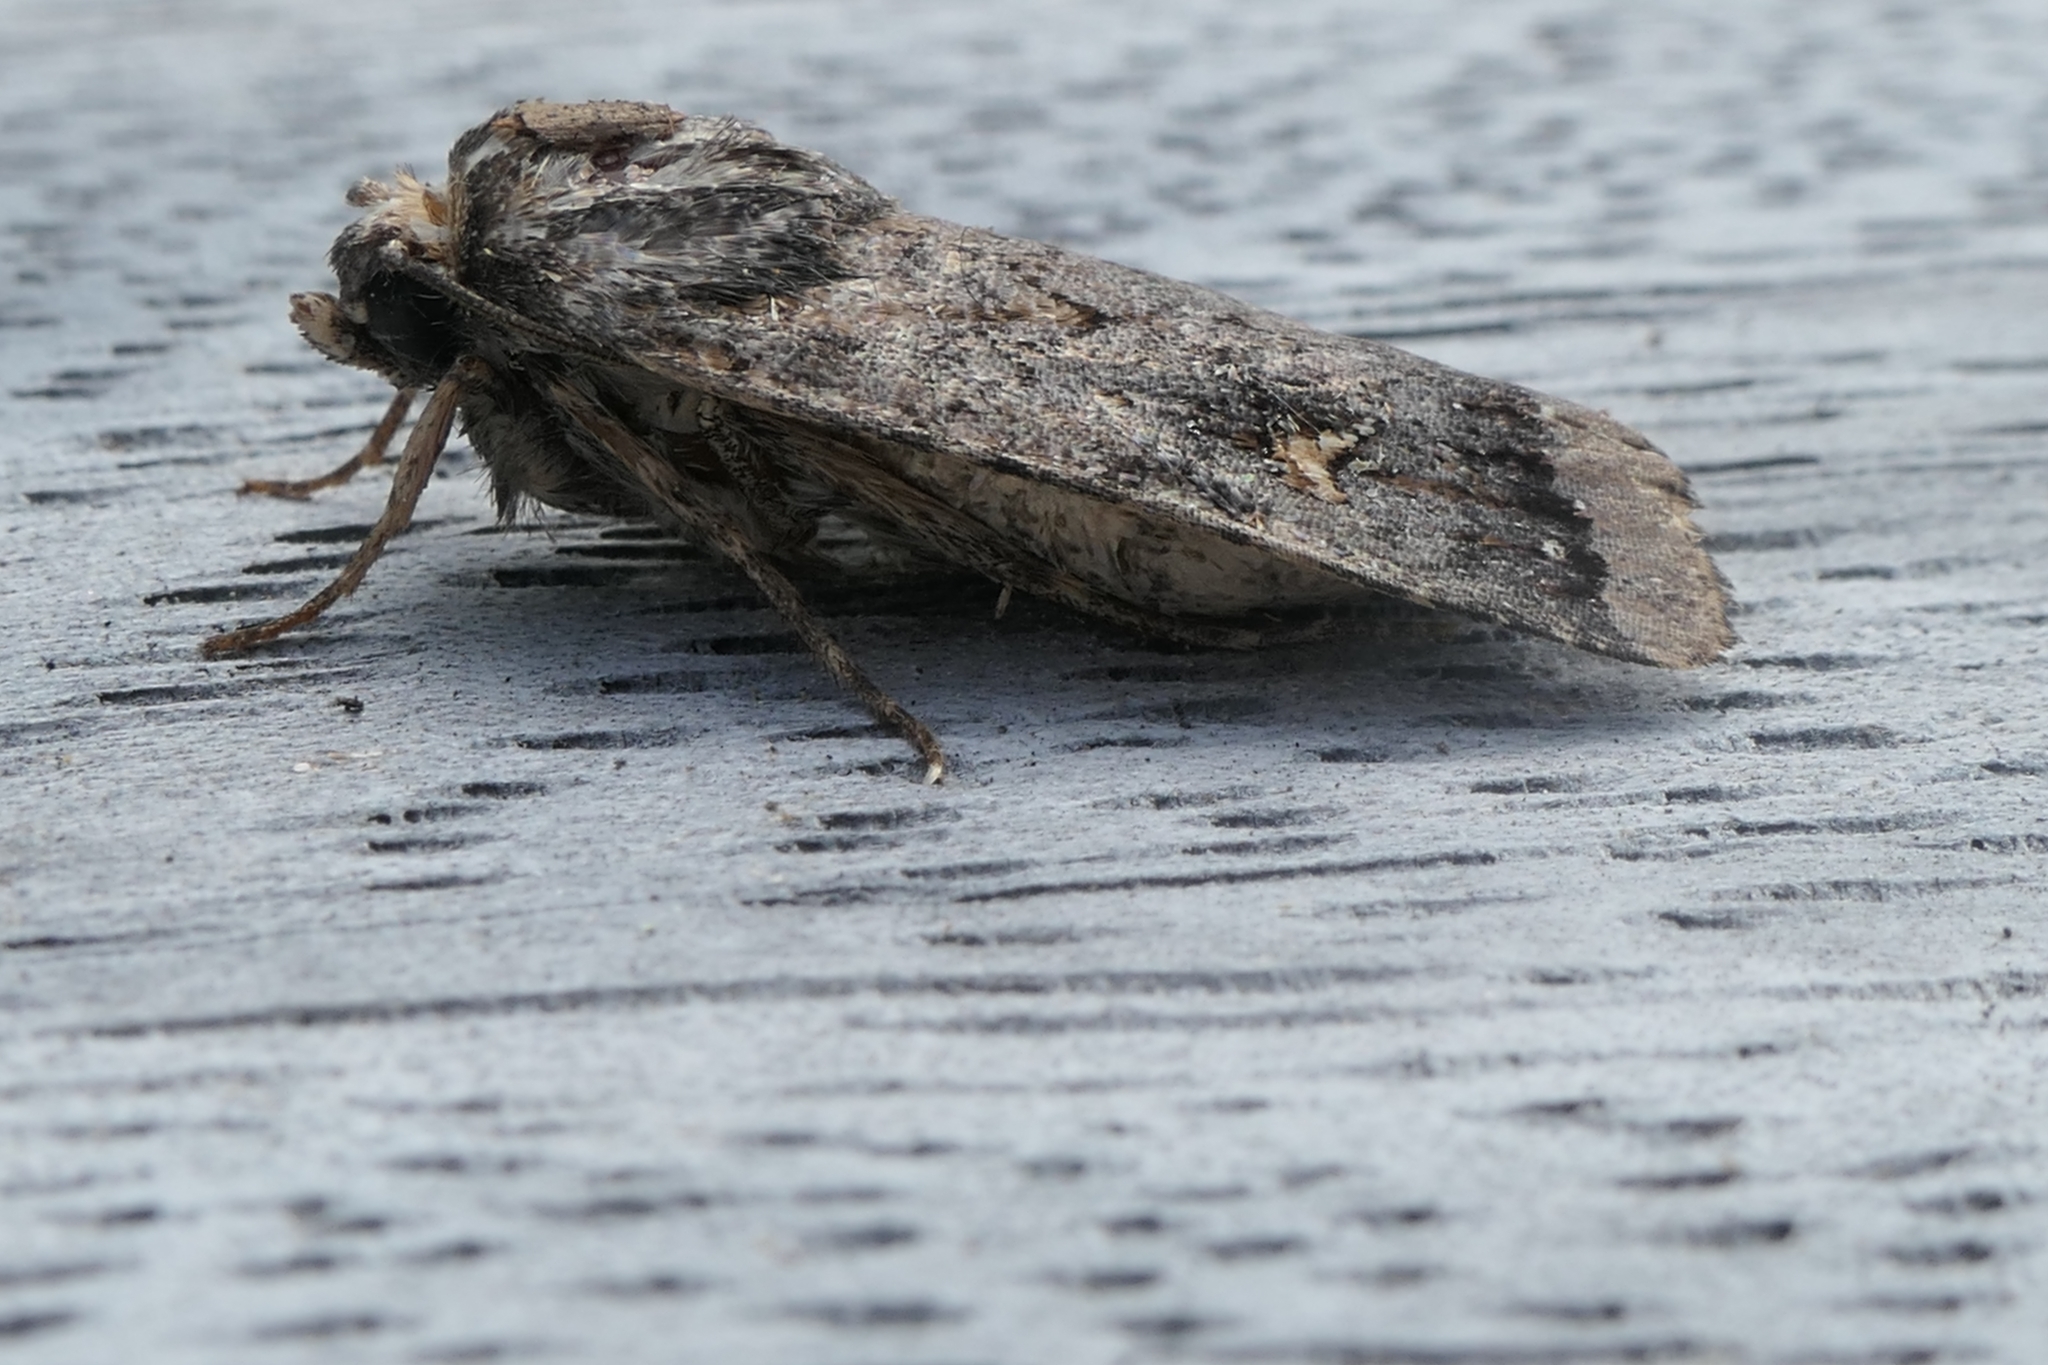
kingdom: Animalia
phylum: Arthropoda
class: Insecta
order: Lepidoptera
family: Noctuidae
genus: Proteuxoa
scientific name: Proteuxoa comma
